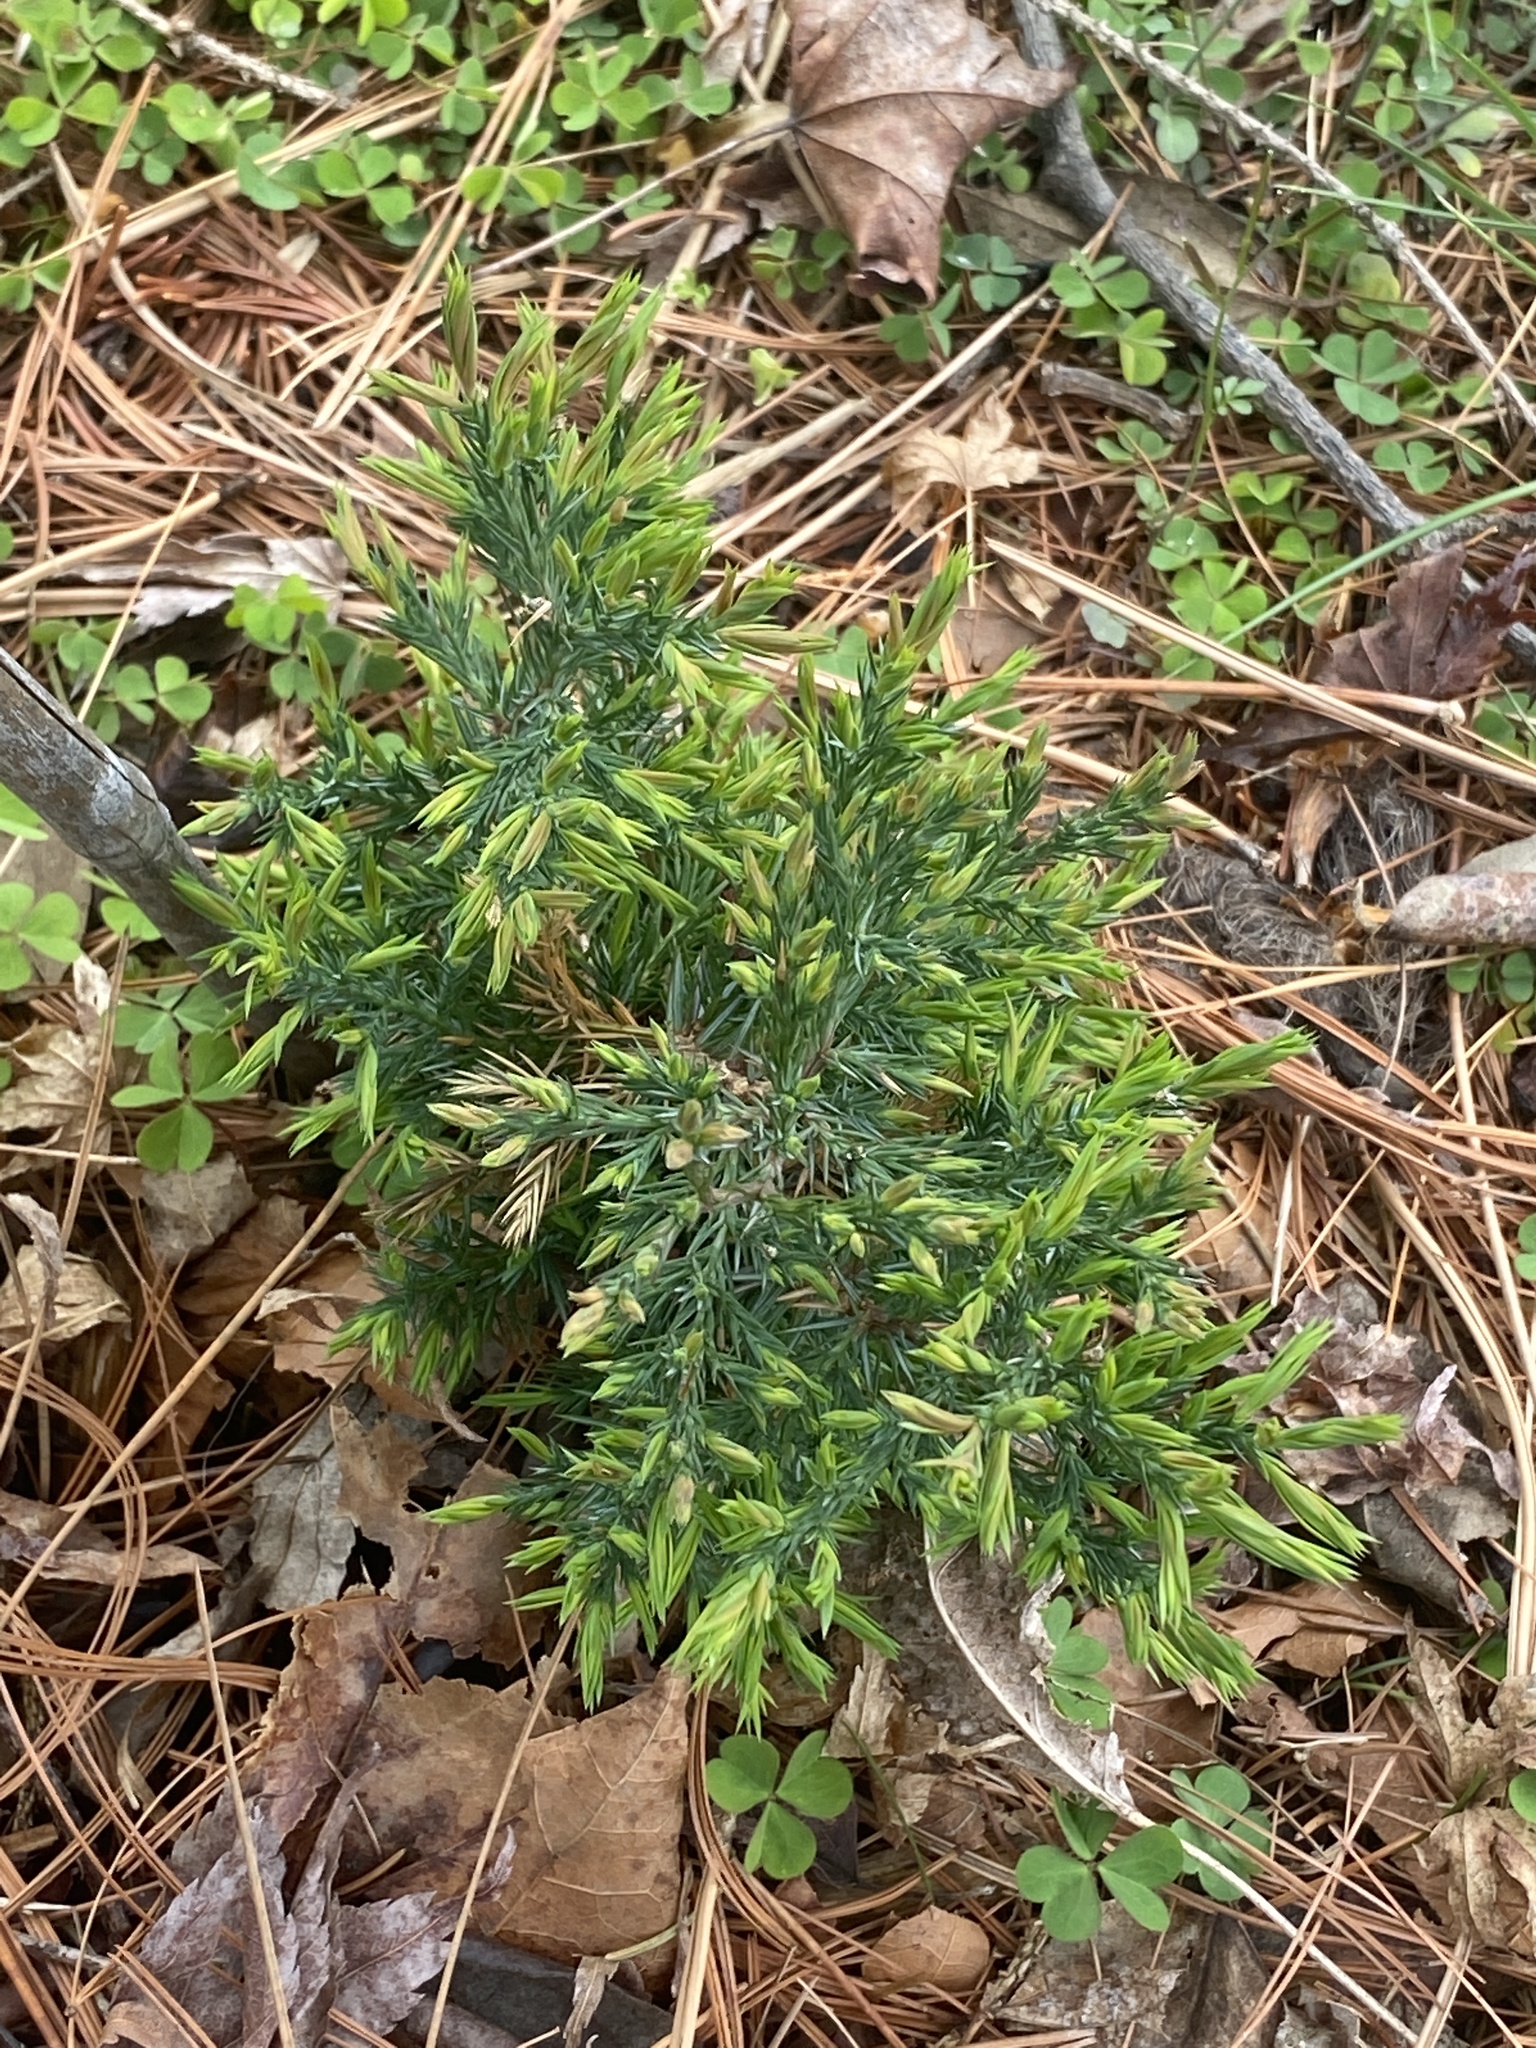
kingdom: Plantae
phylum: Tracheophyta
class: Pinopsida
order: Pinales
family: Cupressaceae
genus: Juniperus
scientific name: Juniperus virginiana
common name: Red juniper
